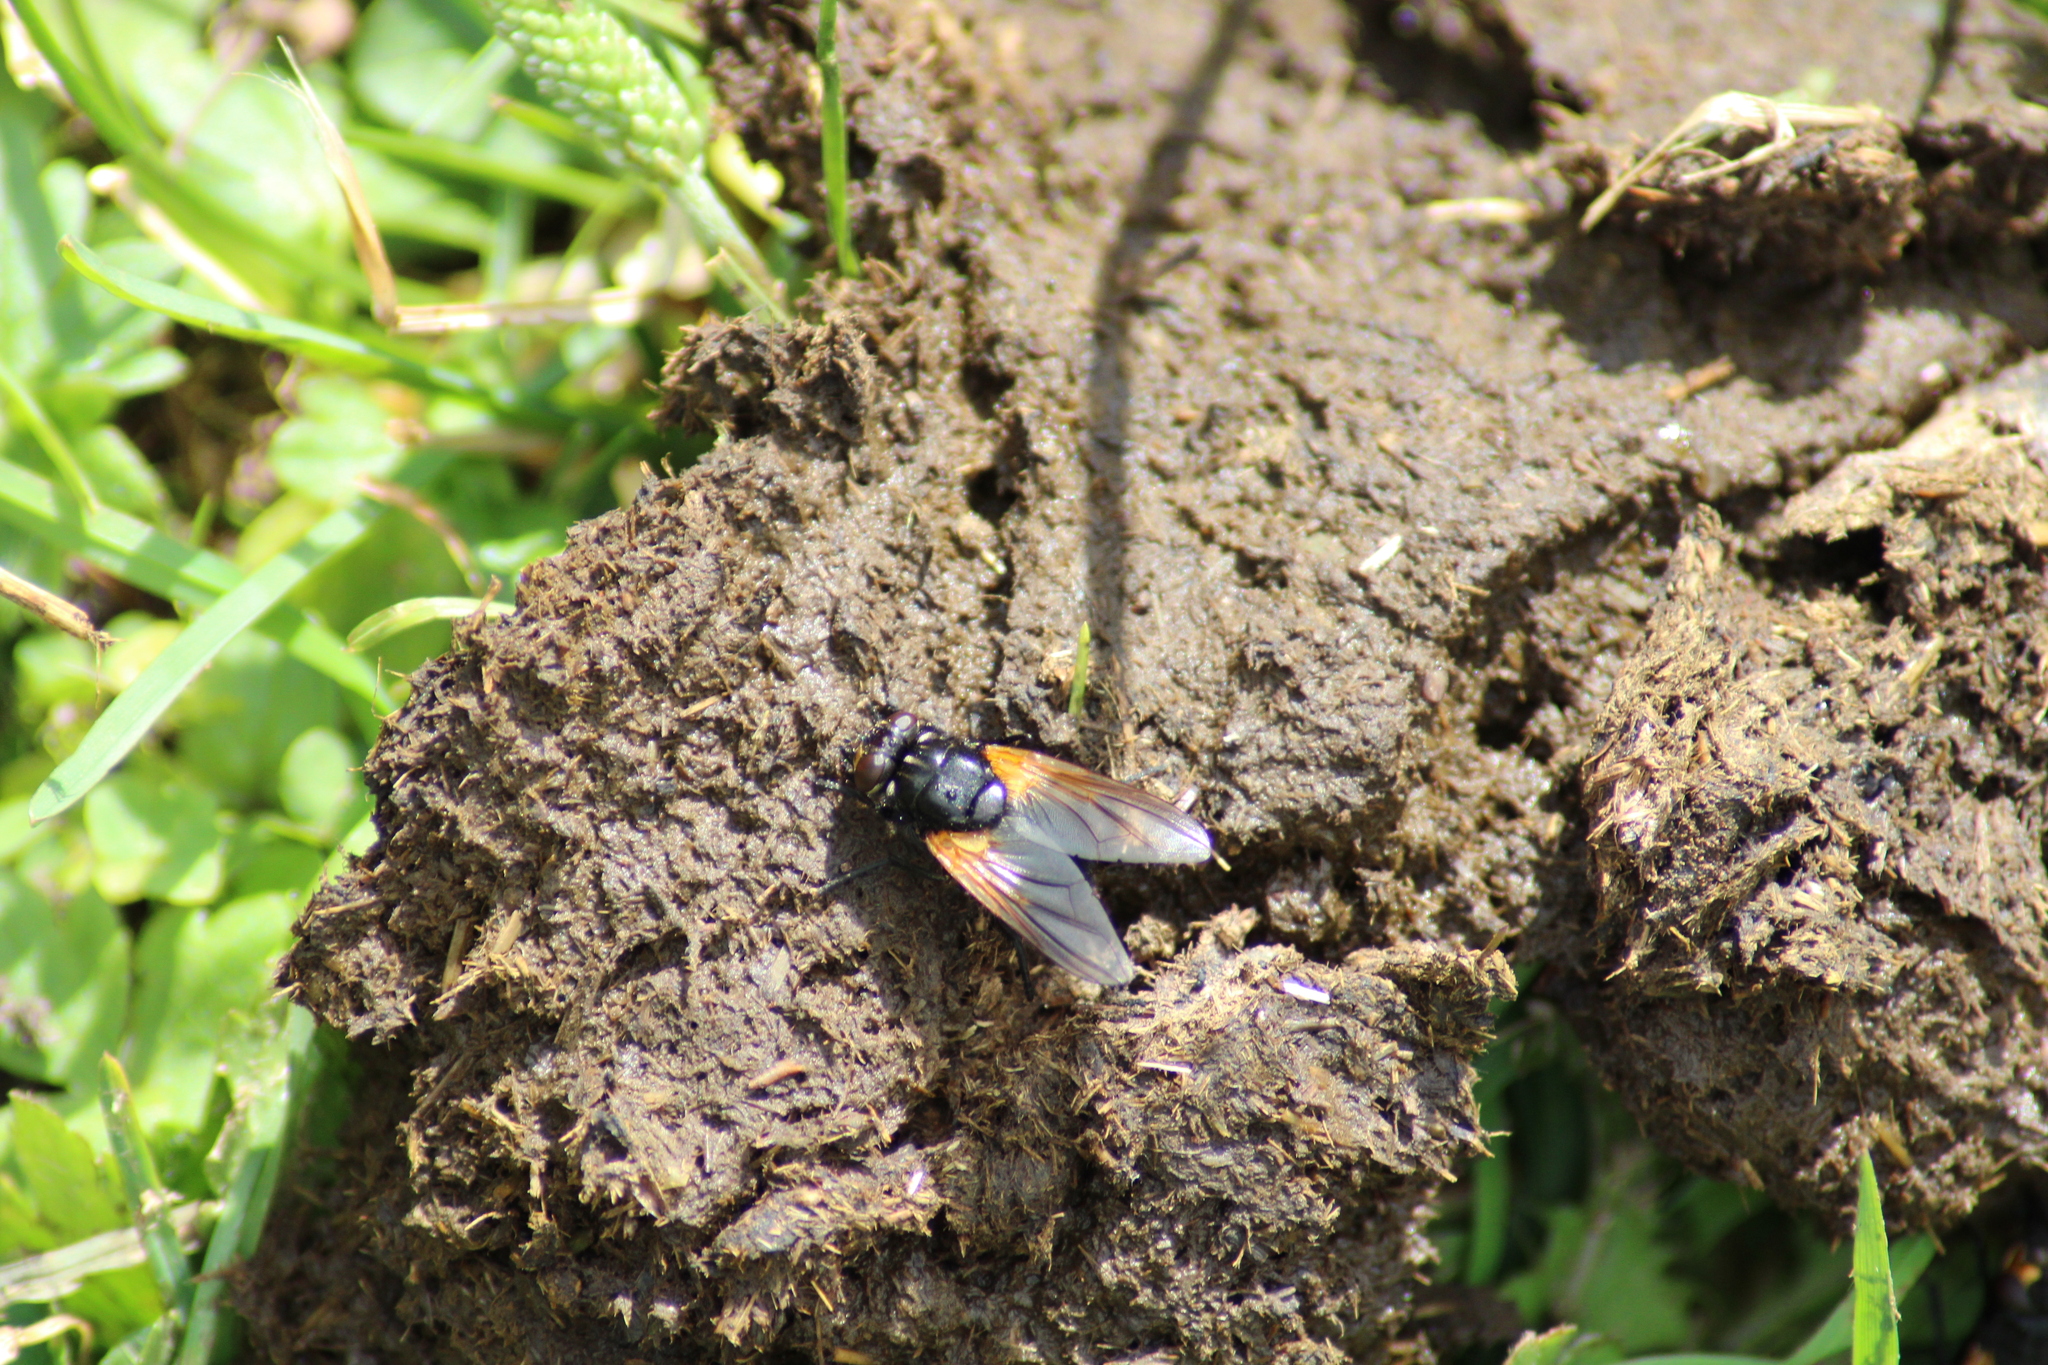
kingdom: Animalia
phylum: Arthropoda
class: Insecta
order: Diptera
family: Muscidae
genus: Mesembrina
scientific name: Mesembrina meridiana
